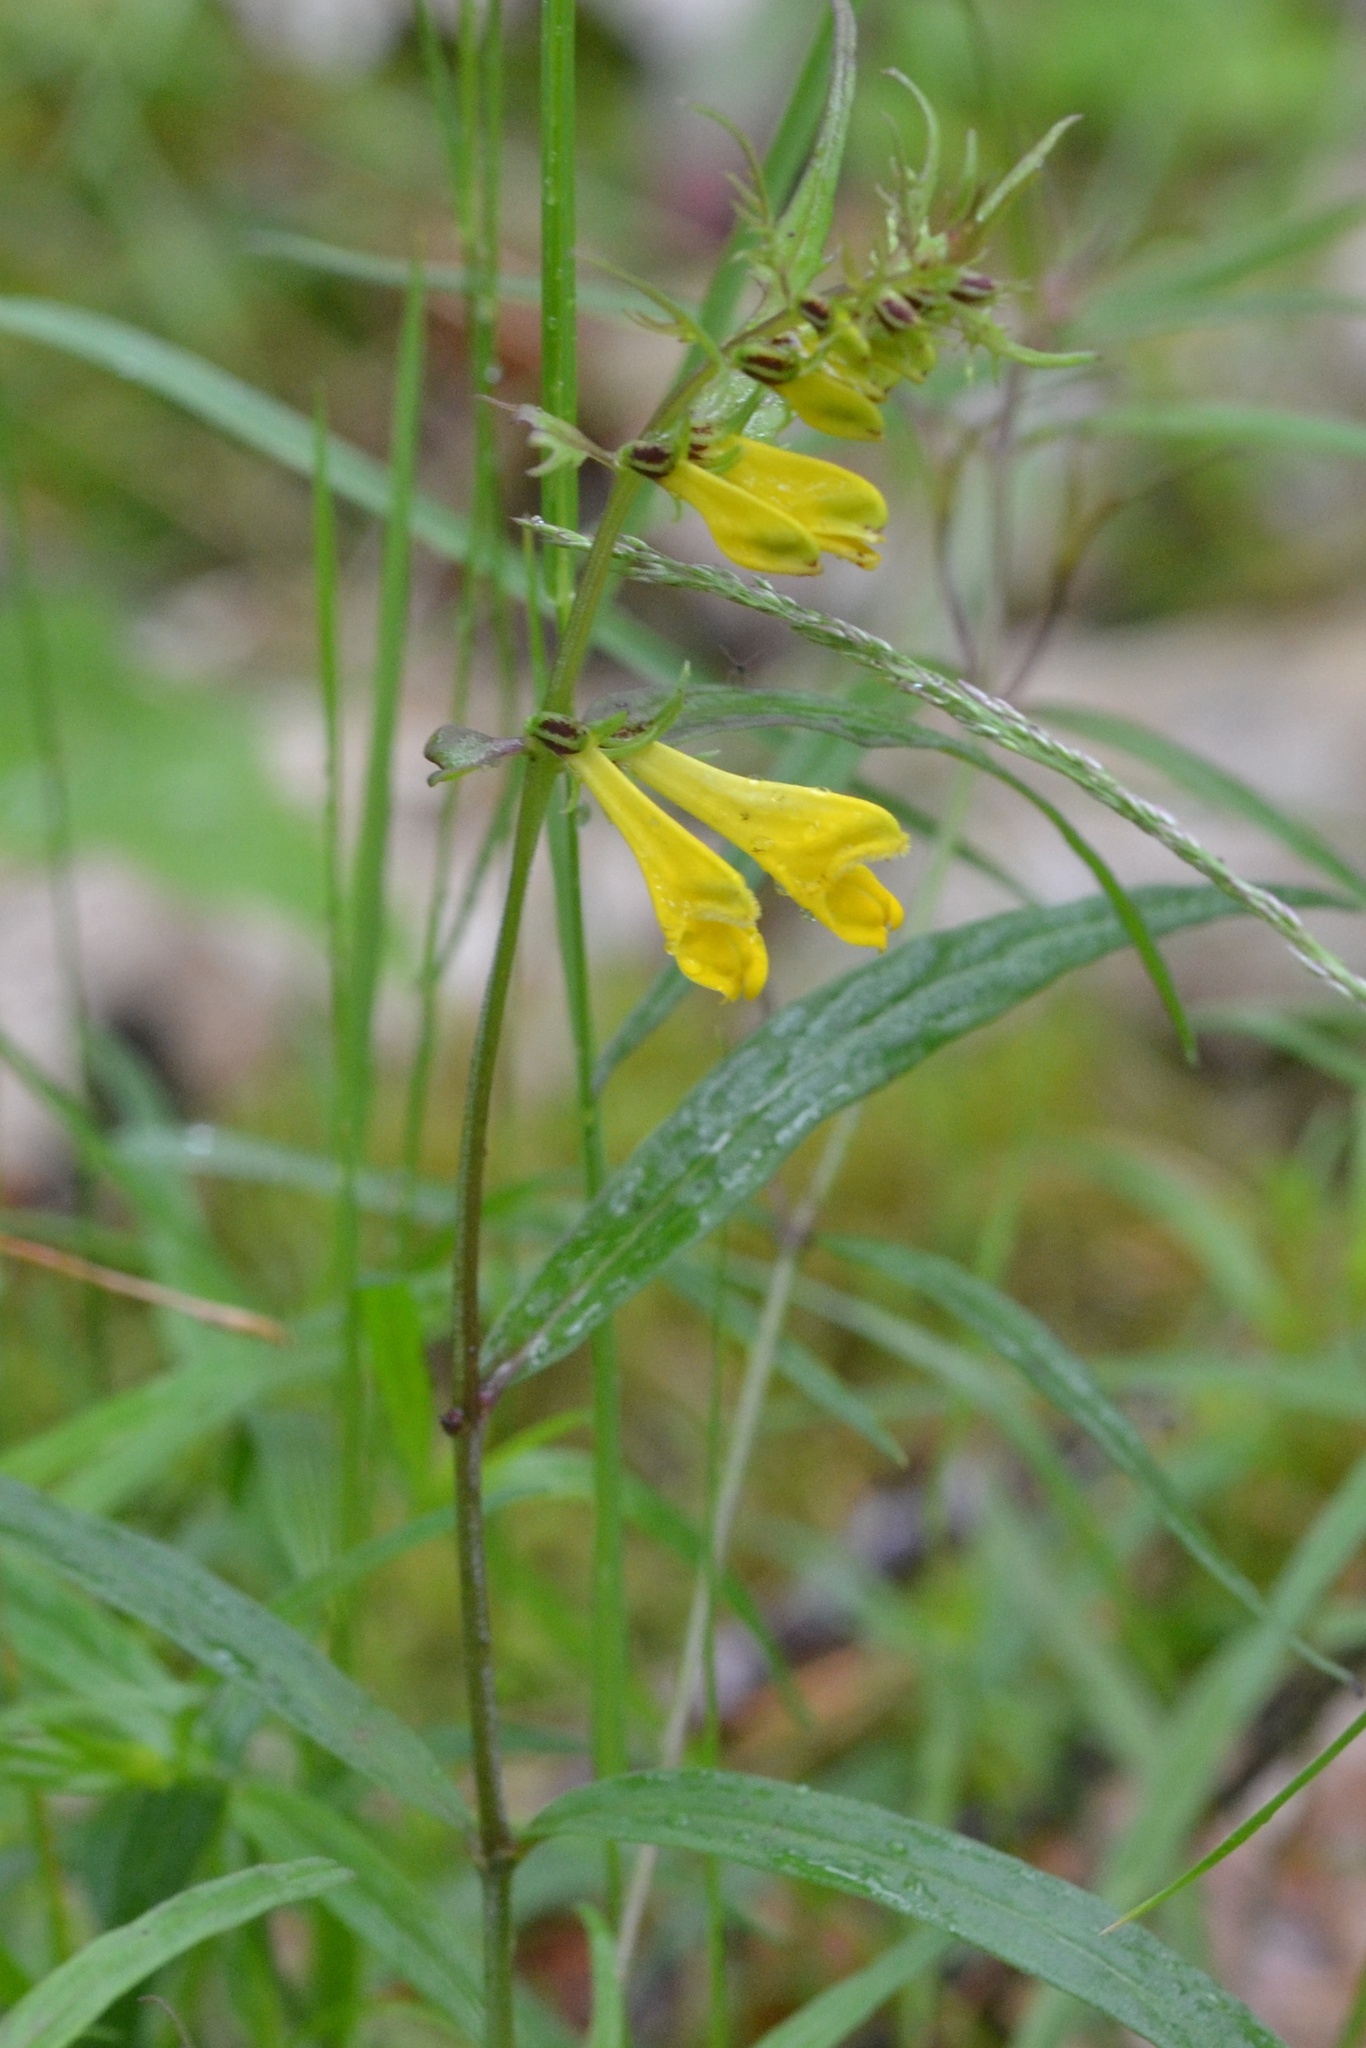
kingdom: Plantae
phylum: Tracheophyta
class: Magnoliopsida
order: Lamiales
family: Orobanchaceae
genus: Melampyrum
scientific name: Melampyrum pratense
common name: Common cow-wheat
